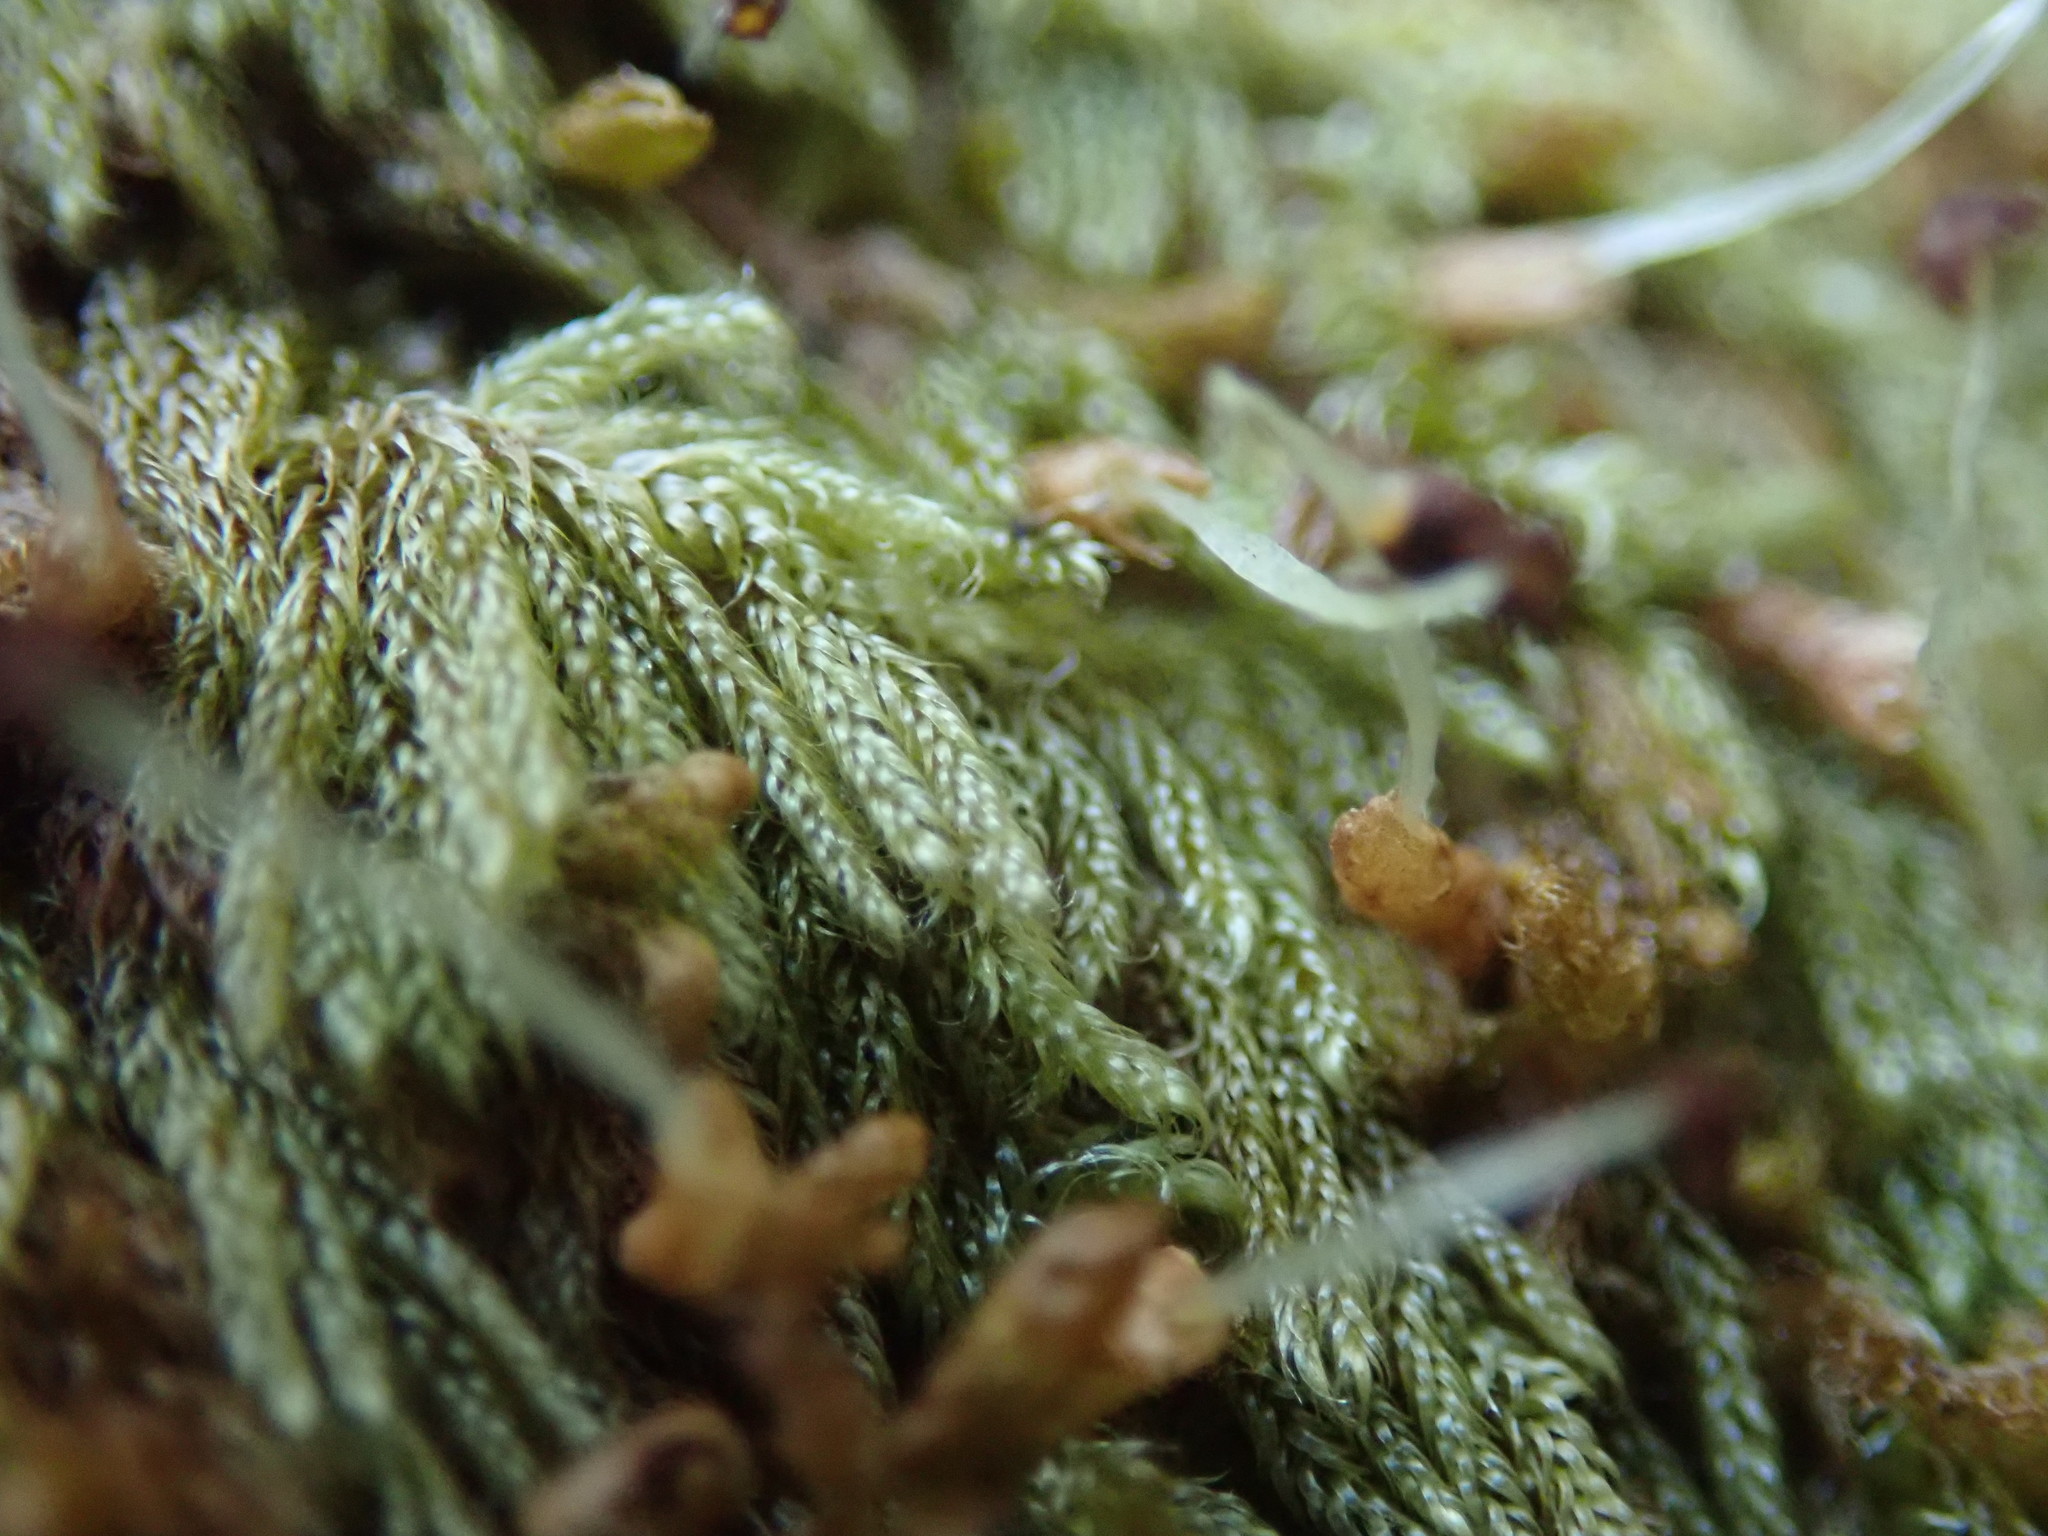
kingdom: Plantae
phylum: Bryophyta
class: Bryopsida
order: Hypnales
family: Pylaisiadelphaceae
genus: Trochophyllohypnum
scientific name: Trochophyllohypnum circinale
